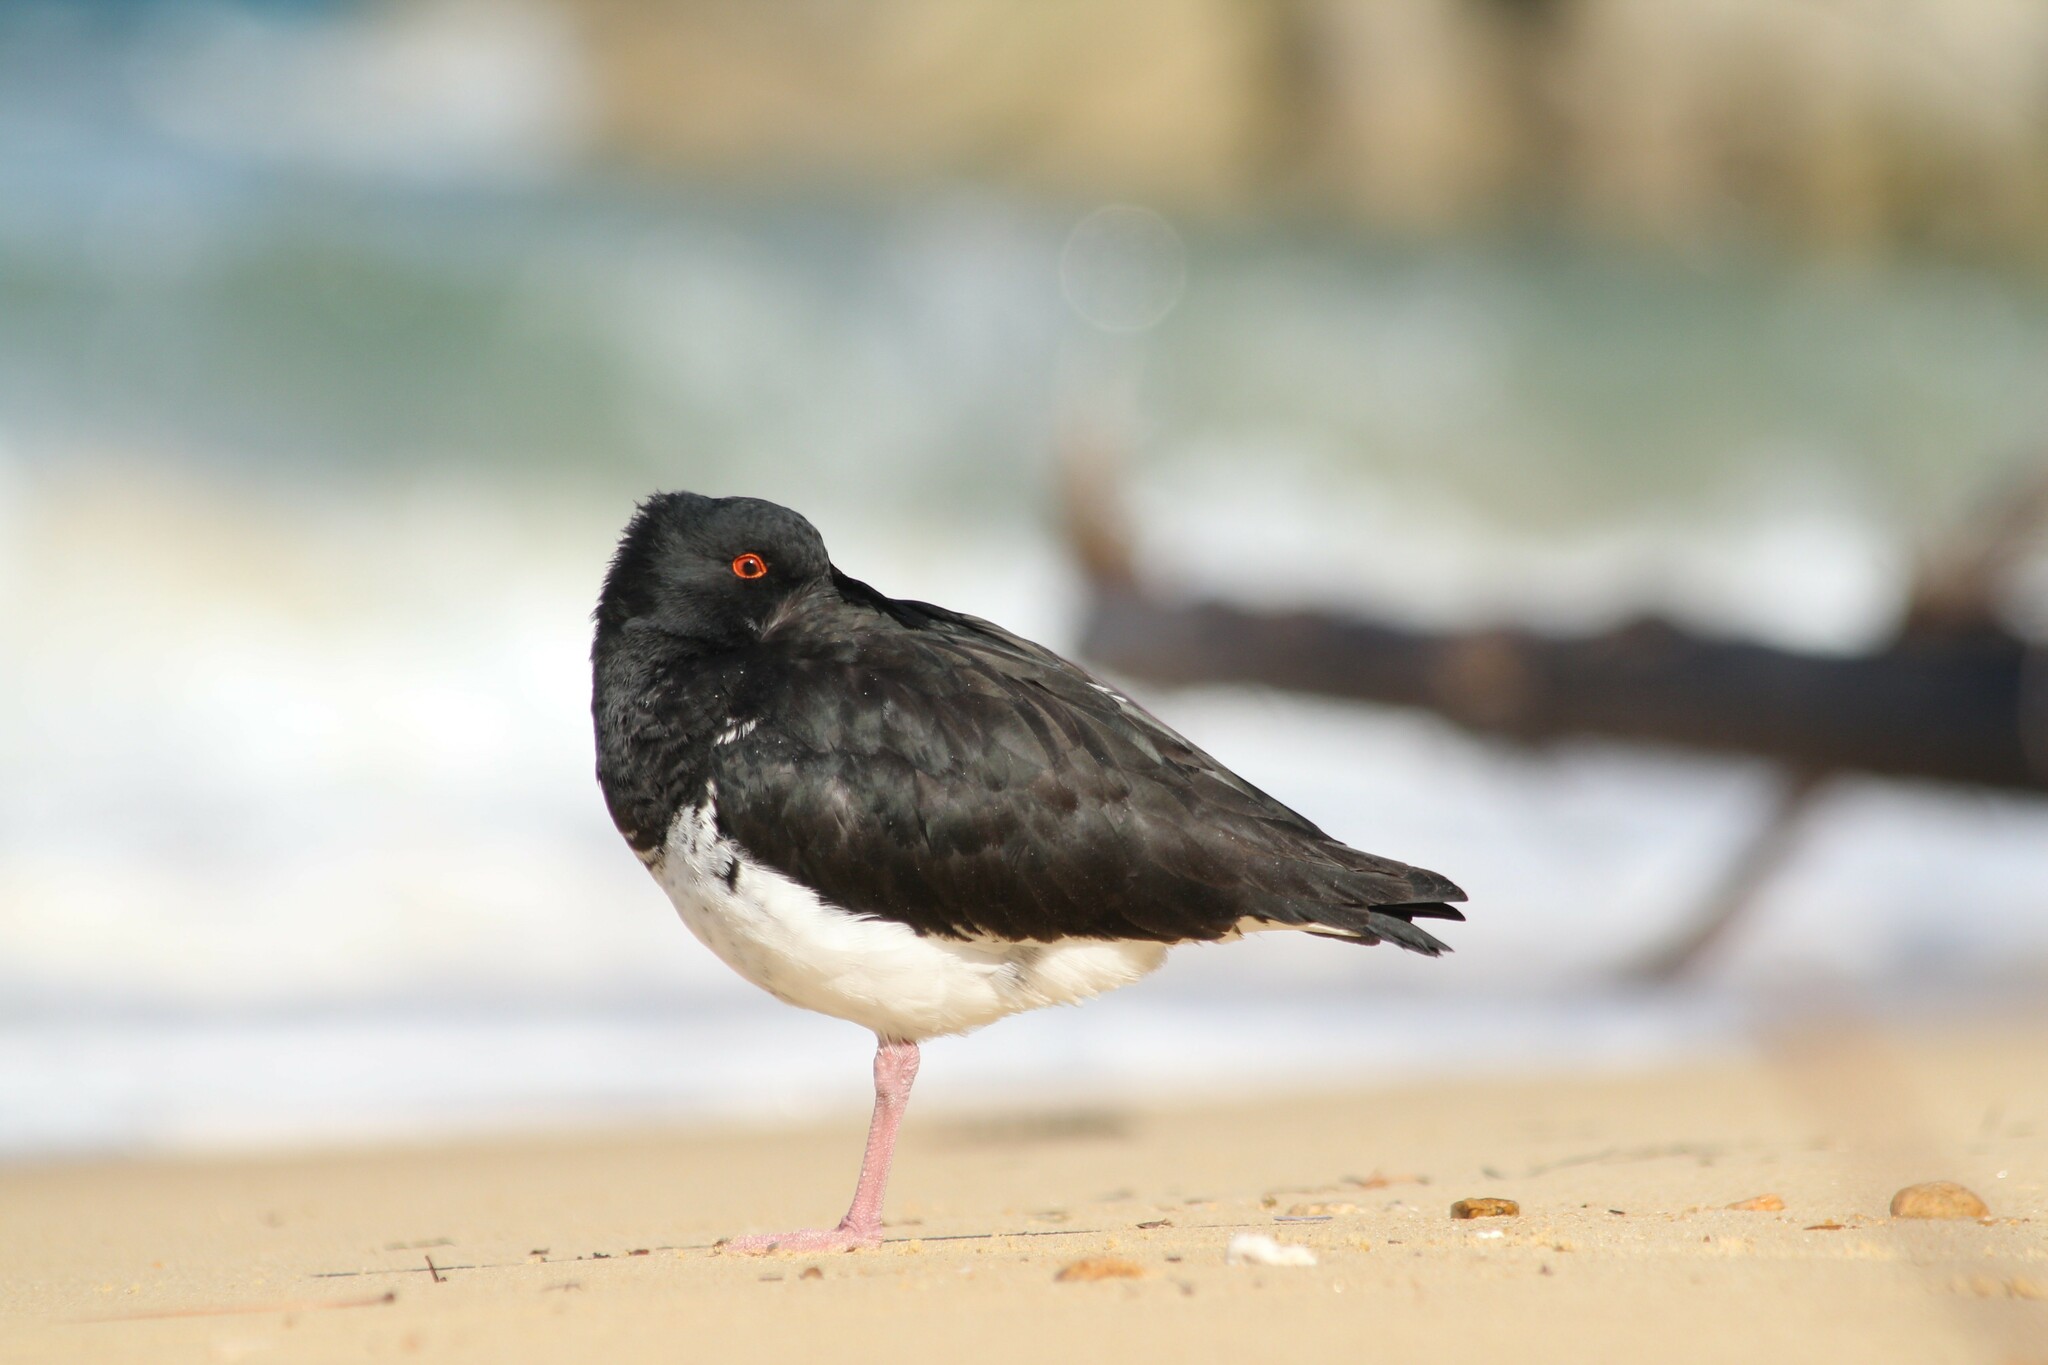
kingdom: Animalia
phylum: Chordata
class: Aves
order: Charadriiformes
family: Haematopodidae
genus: Haematopus
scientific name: Haematopus unicolor
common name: Variable oystercatcher
